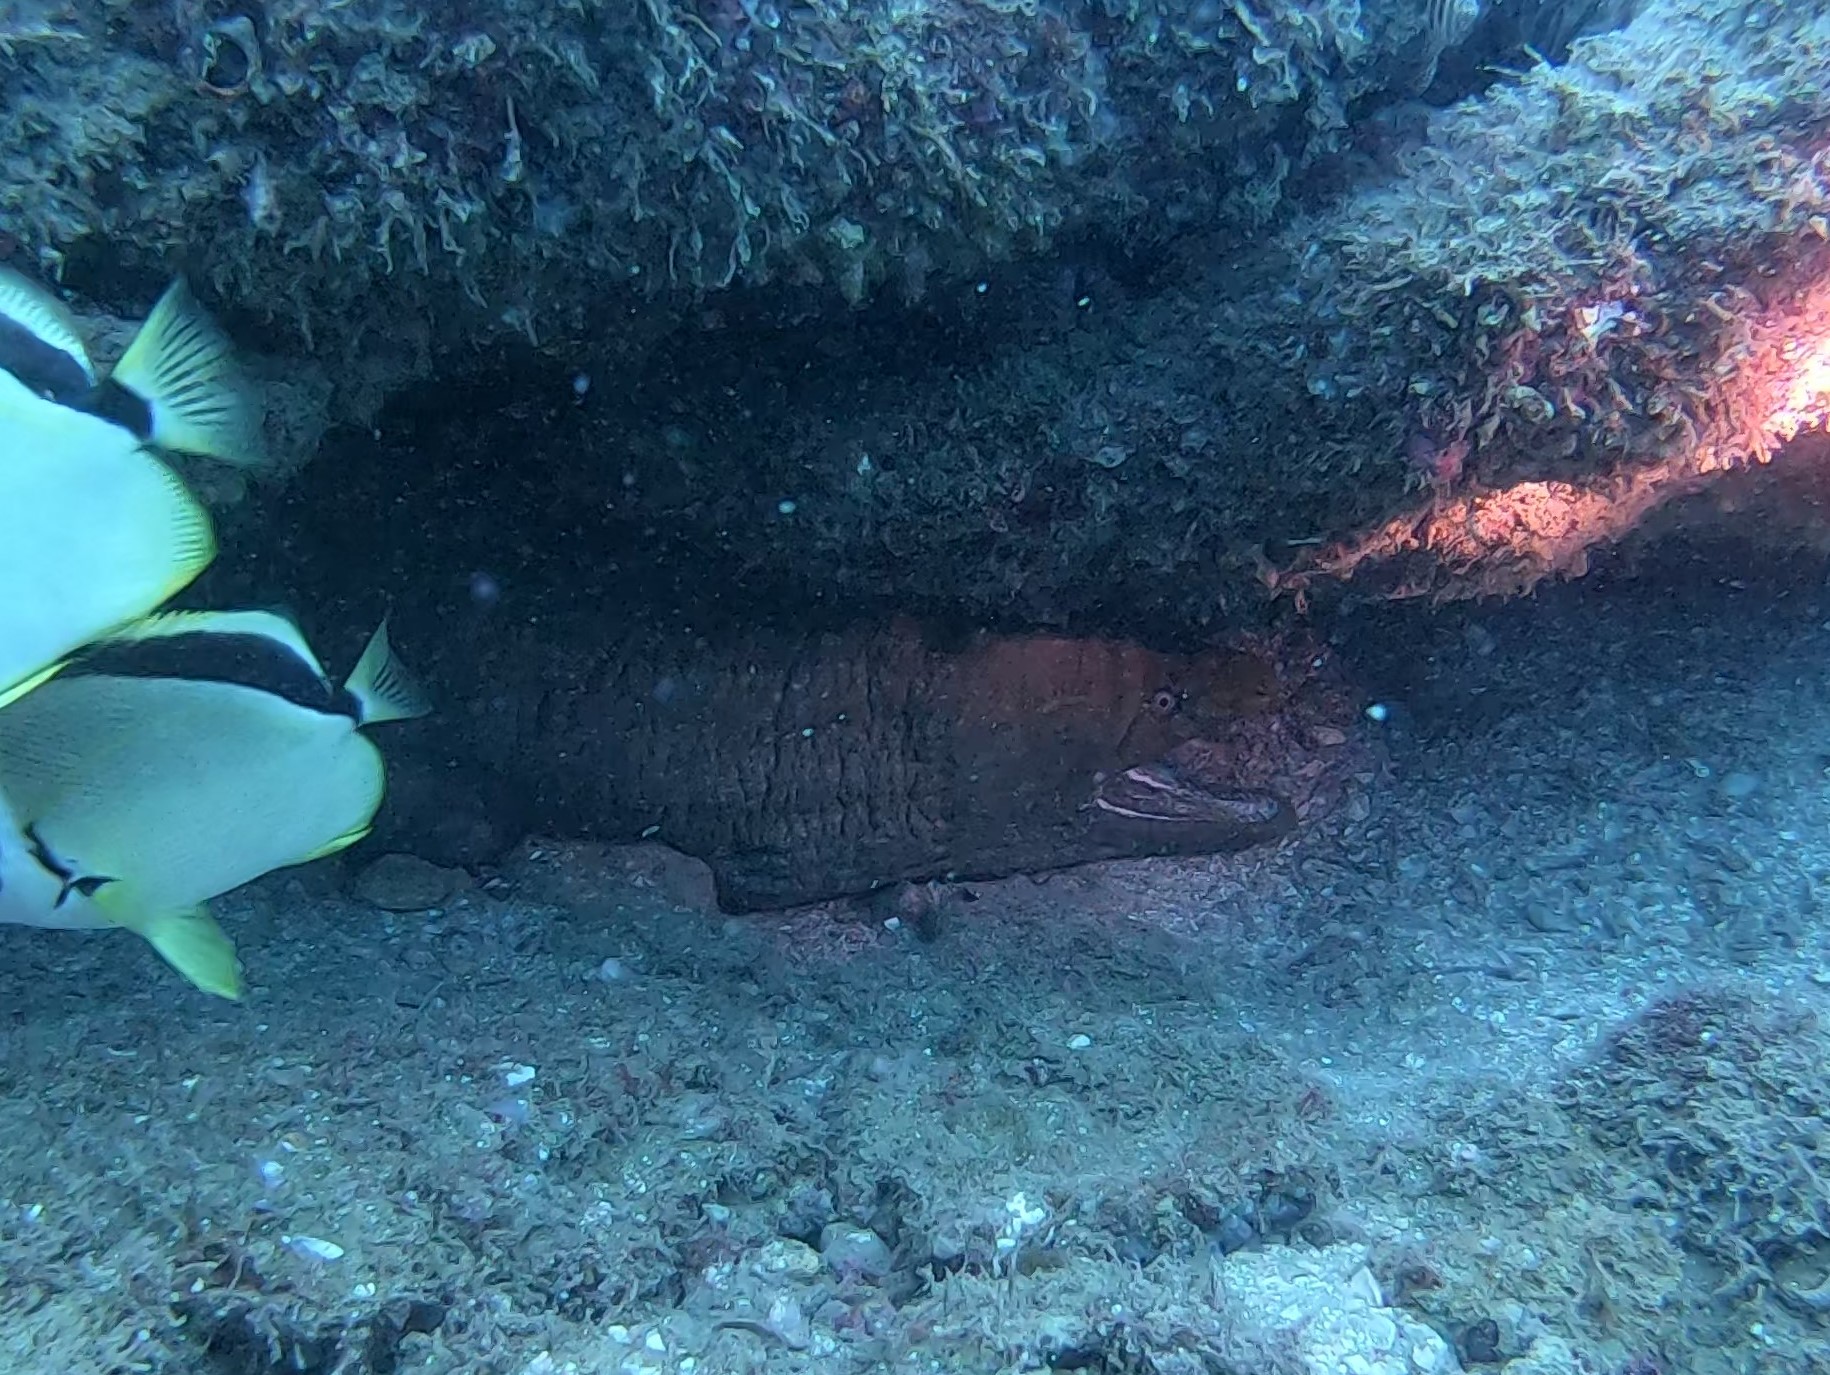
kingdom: Animalia
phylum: Chordata
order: Anguilliformes
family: Muraenidae
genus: Gymnothorax
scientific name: Gymnothorax castaneus
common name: Chestnut moray
